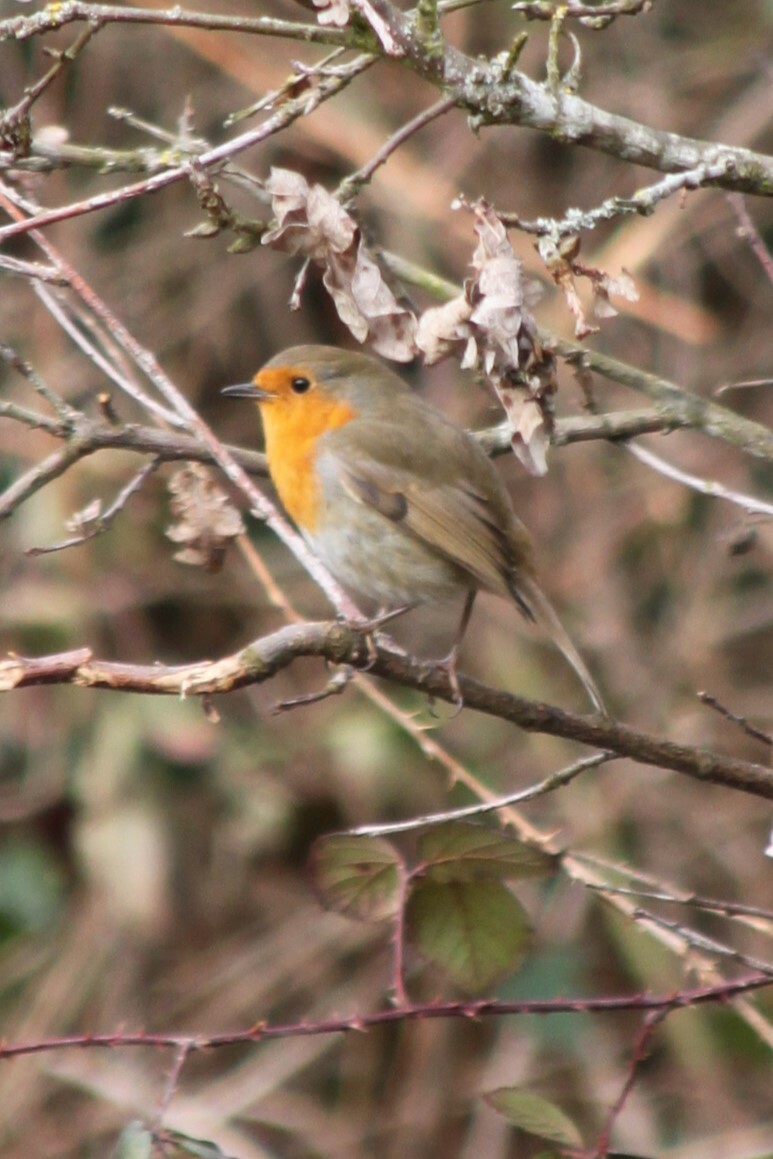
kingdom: Animalia
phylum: Chordata
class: Aves
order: Passeriformes
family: Muscicapidae
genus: Erithacus
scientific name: Erithacus rubecula
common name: European robin
